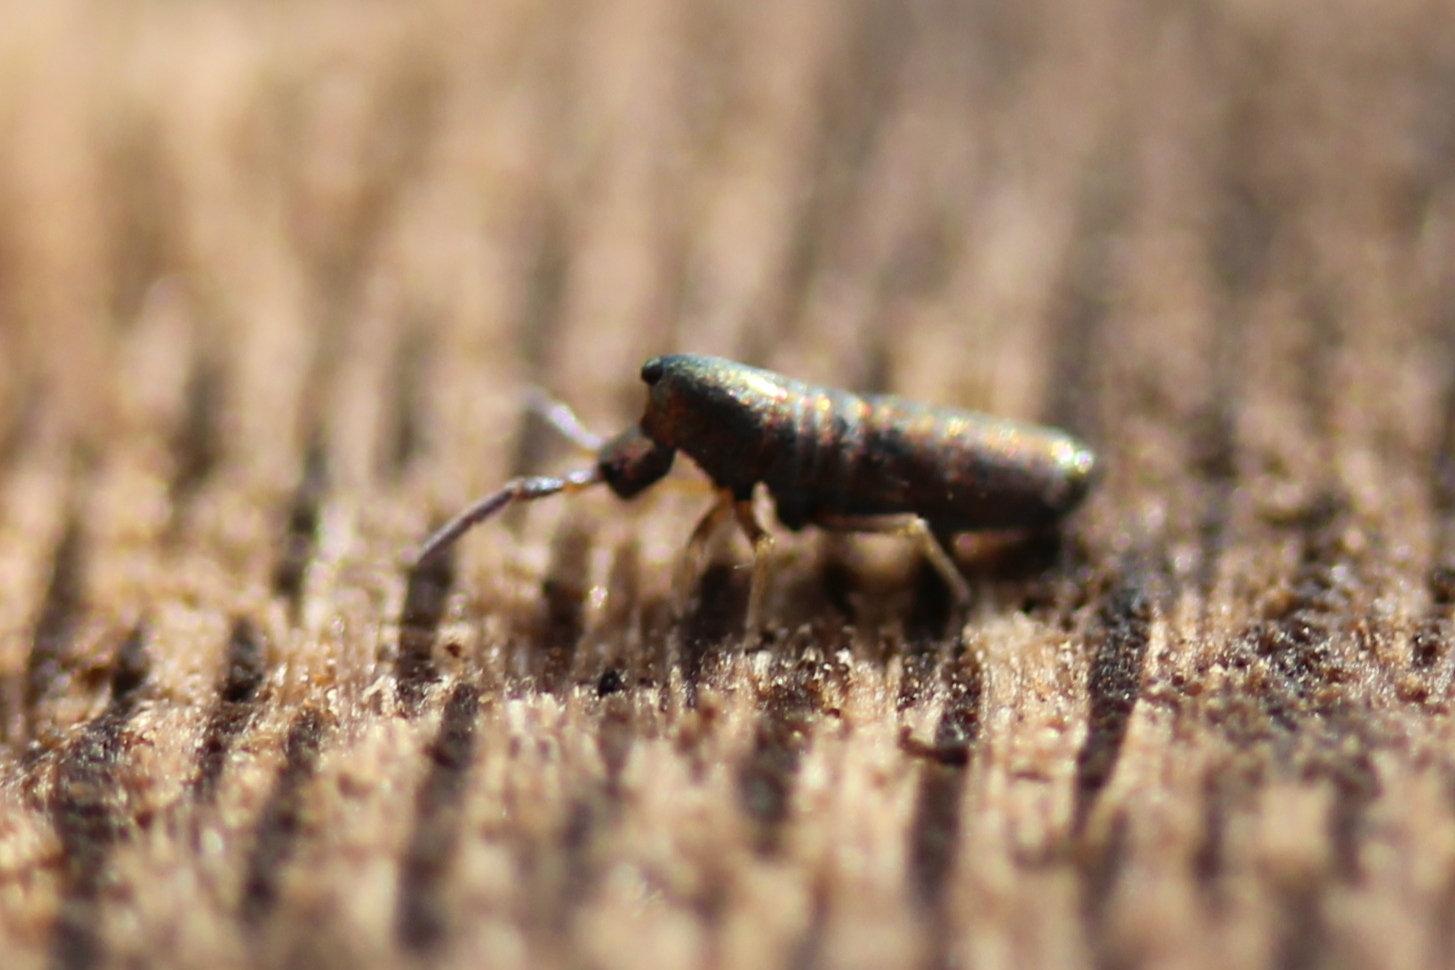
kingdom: Animalia
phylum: Arthropoda
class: Collembola
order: Entomobryomorpha
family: Entomobryidae
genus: Lepidocyrtus
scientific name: Lepidocyrtus paradoxus
